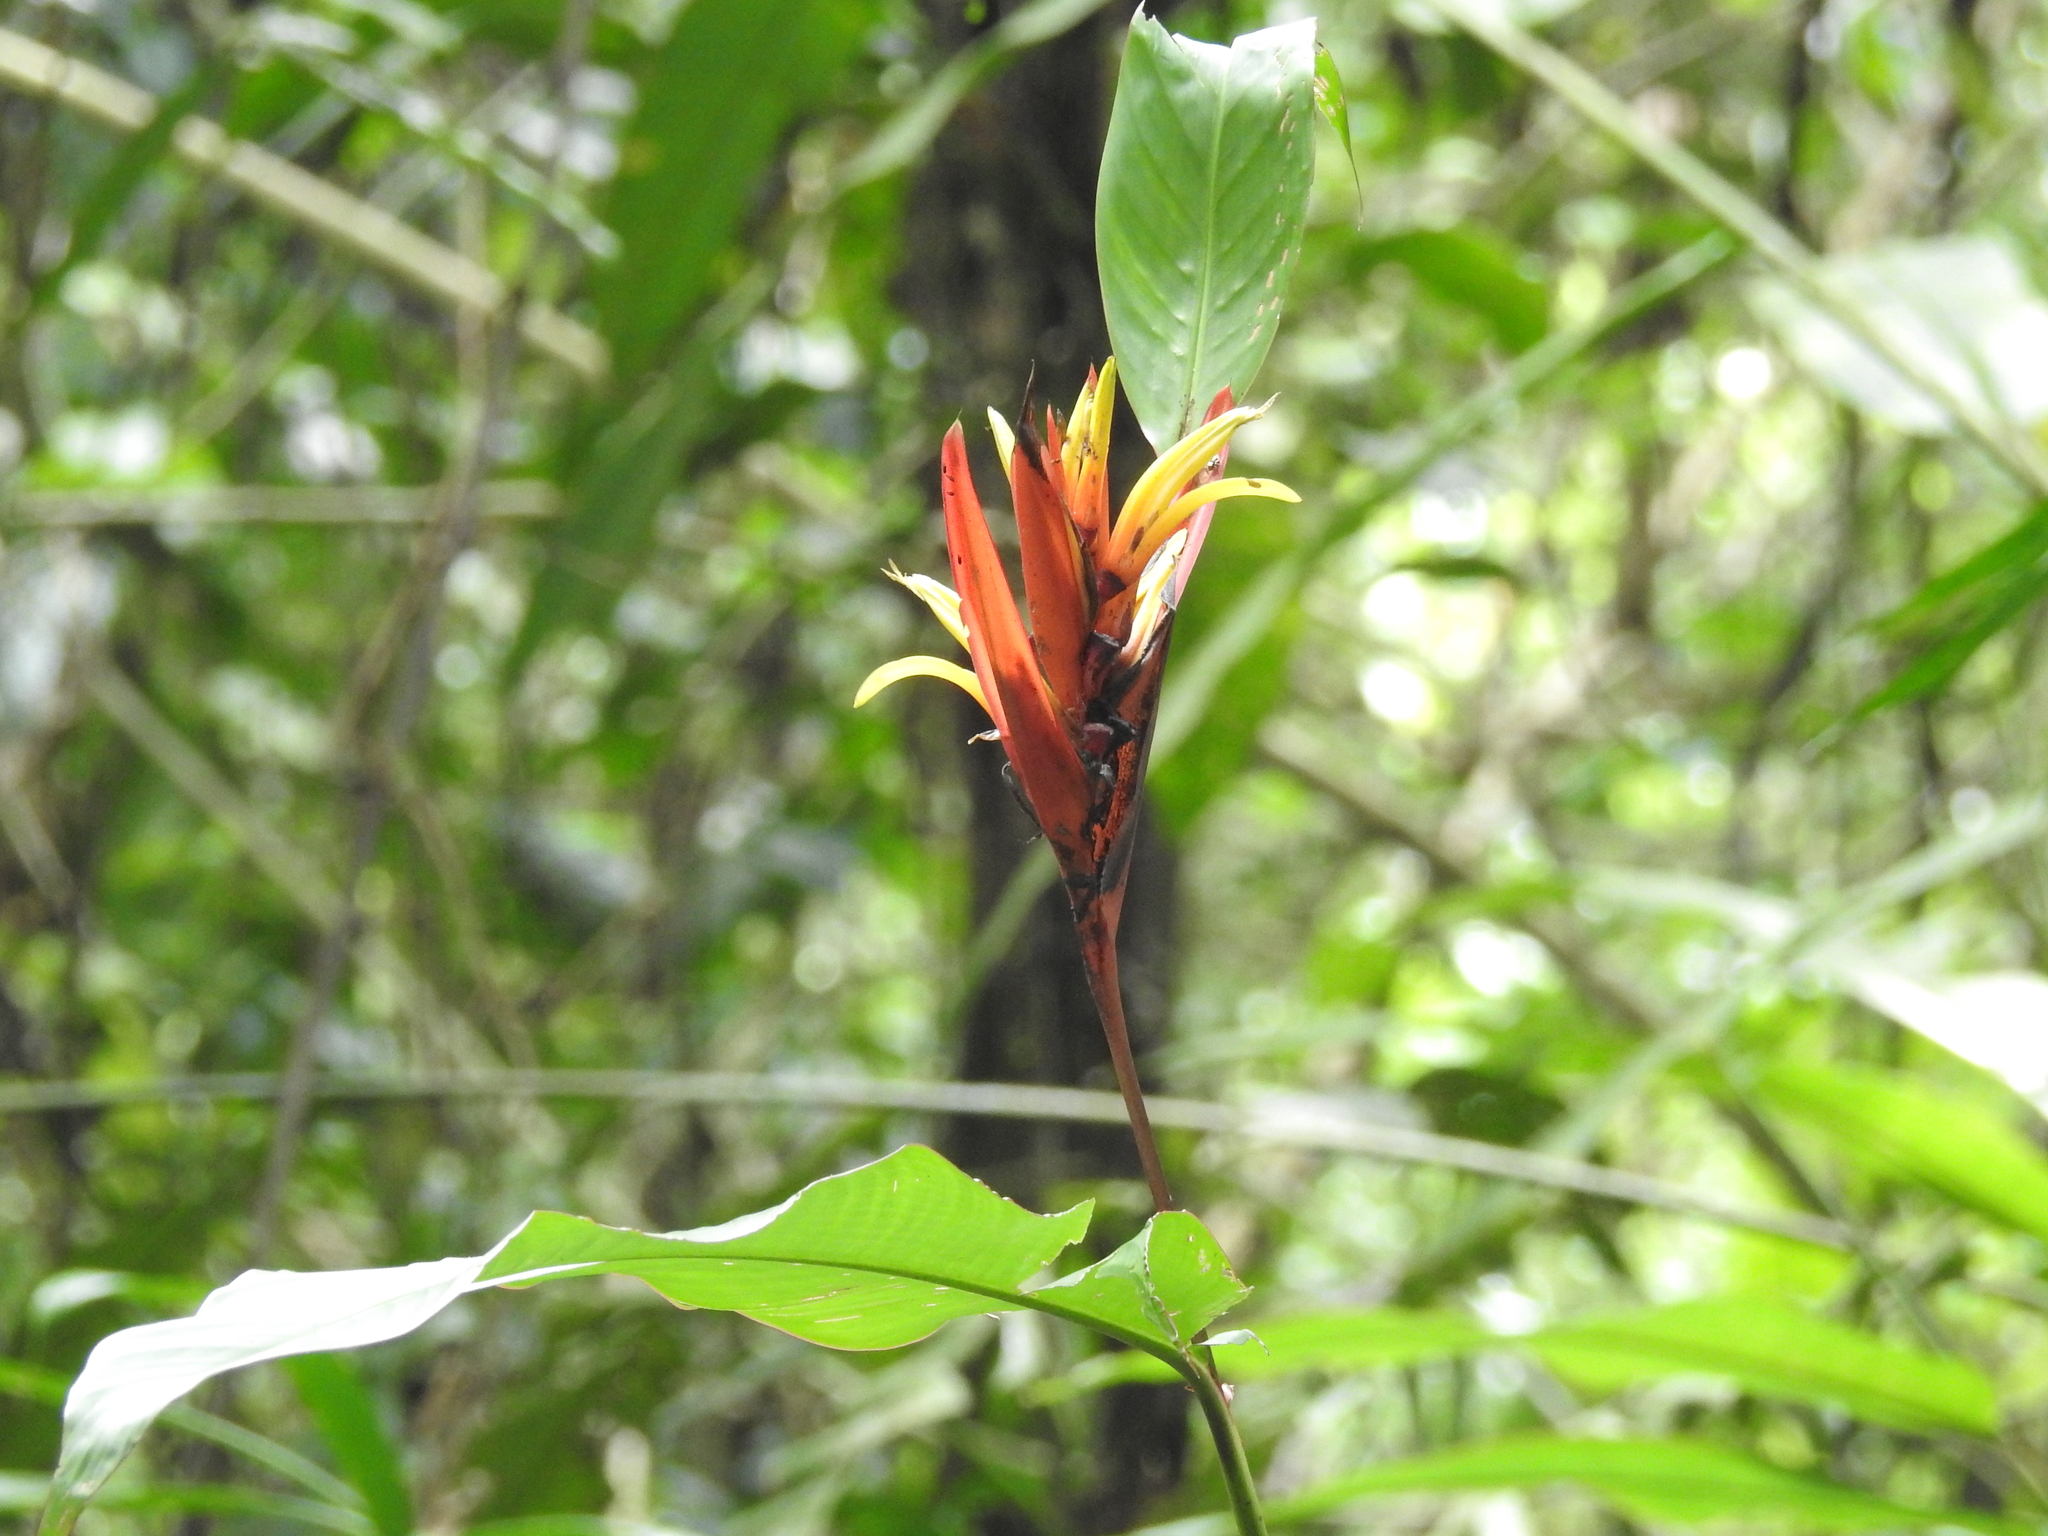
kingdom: Plantae
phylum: Tracheophyta
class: Liliopsida
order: Zingiberales
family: Heliconiaceae
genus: Heliconia
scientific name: Heliconia mathiasiae
